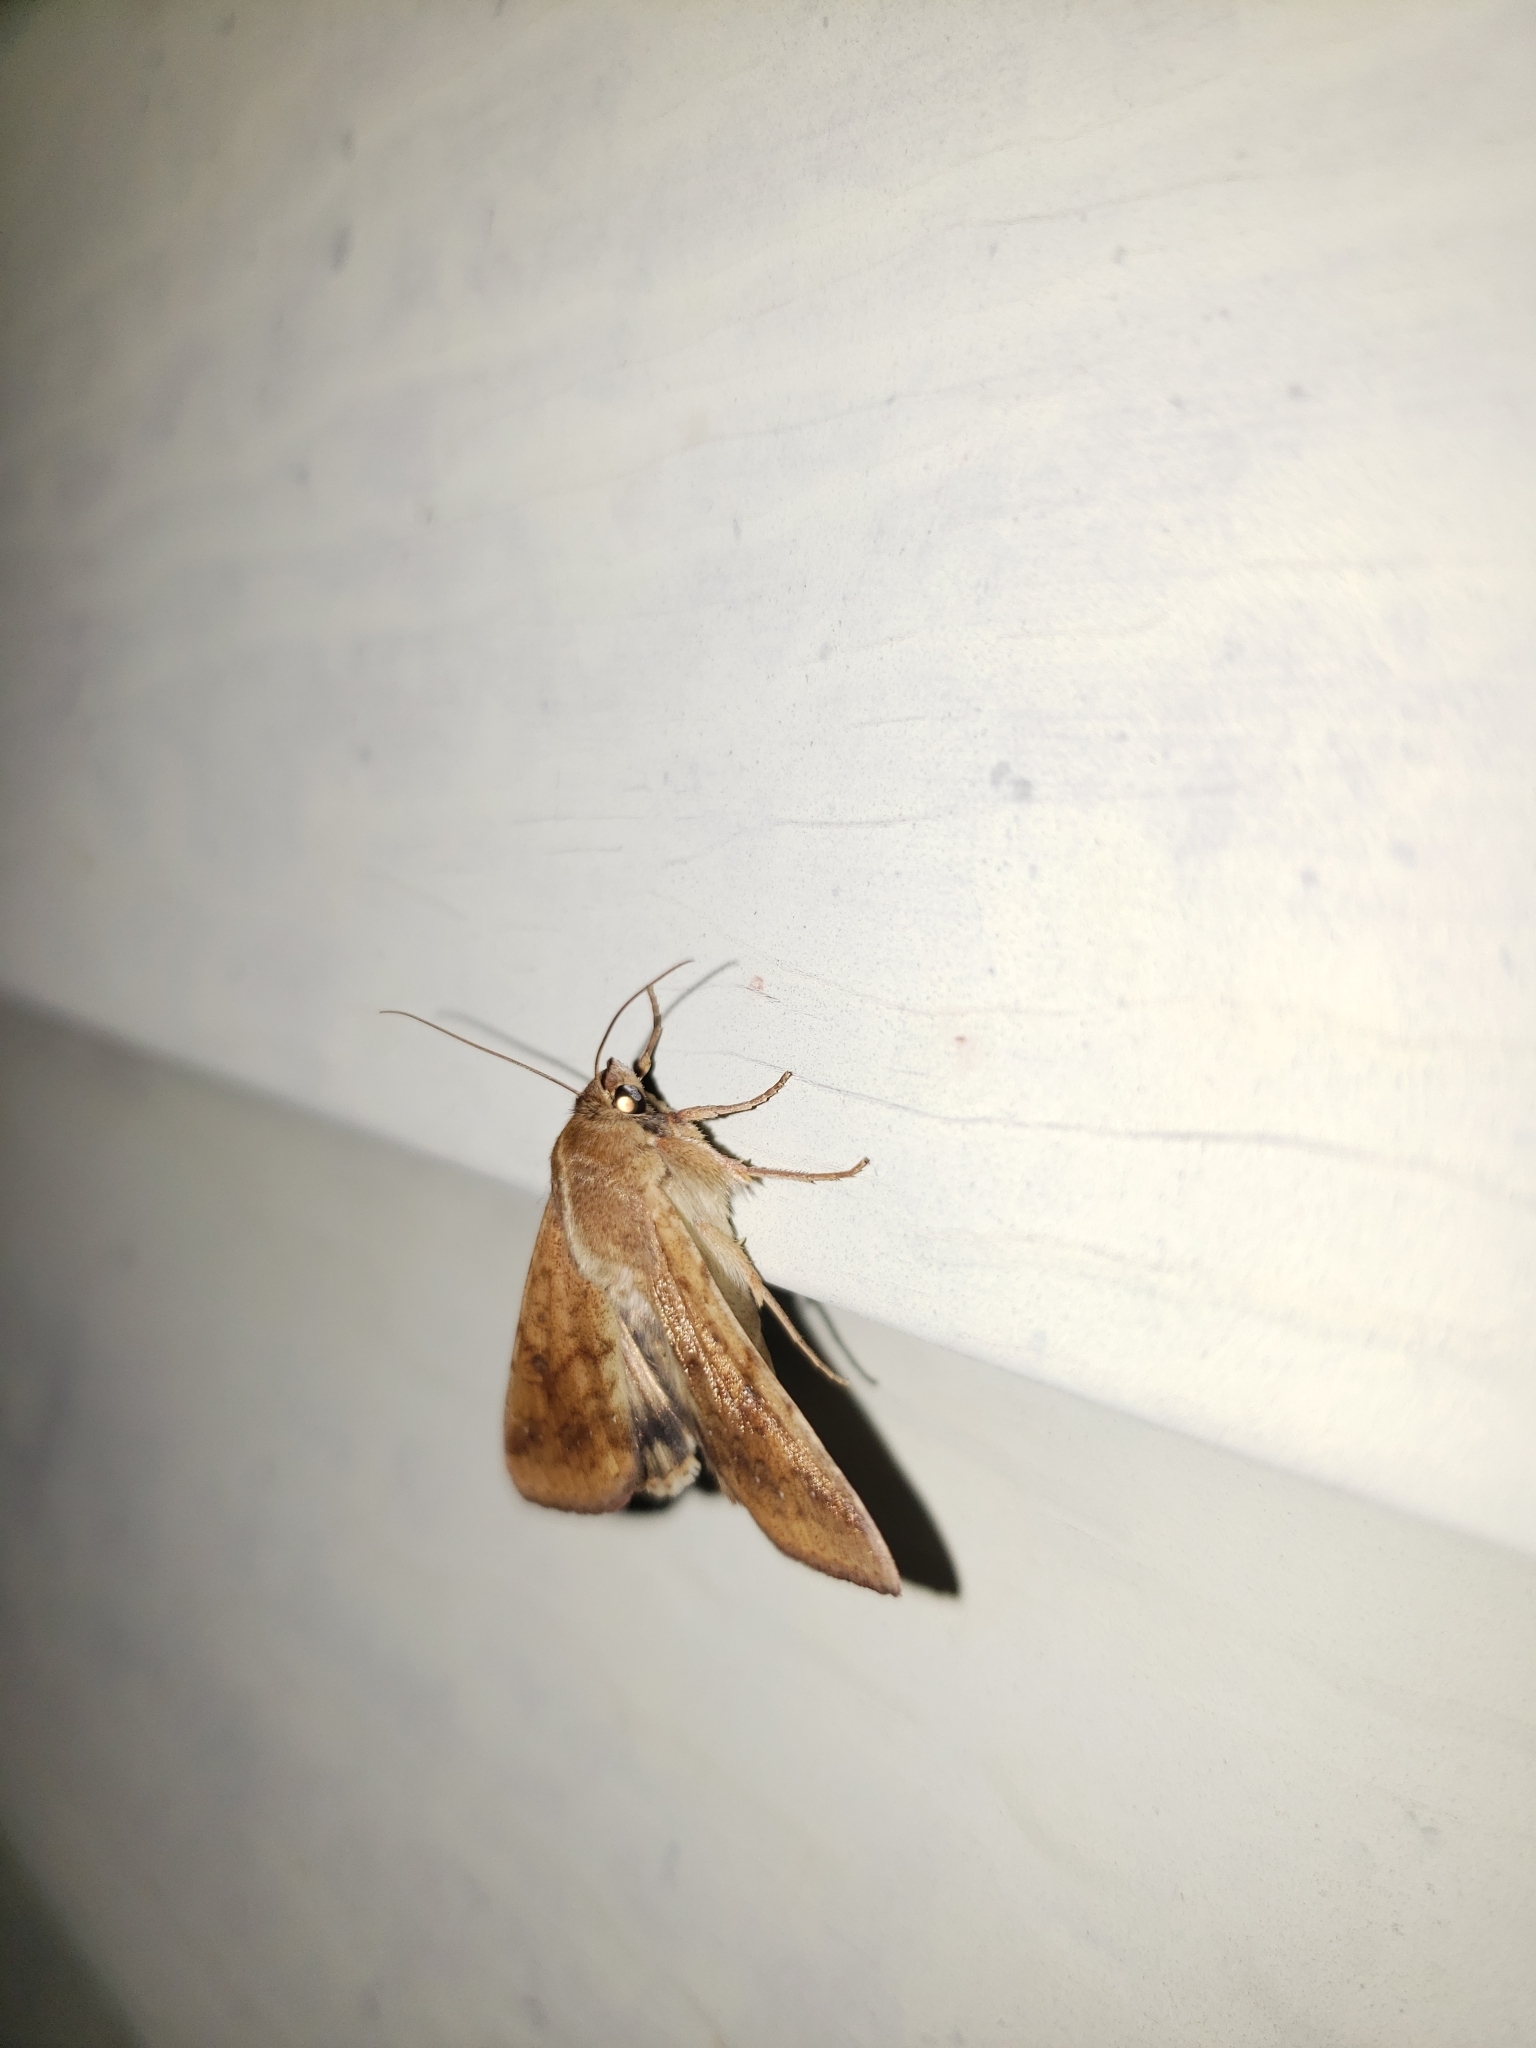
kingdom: Animalia
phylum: Arthropoda
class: Insecta
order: Lepidoptera
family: Noctuidae
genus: Helicoverpa
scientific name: Helicoverpa zea
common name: Bollworm
